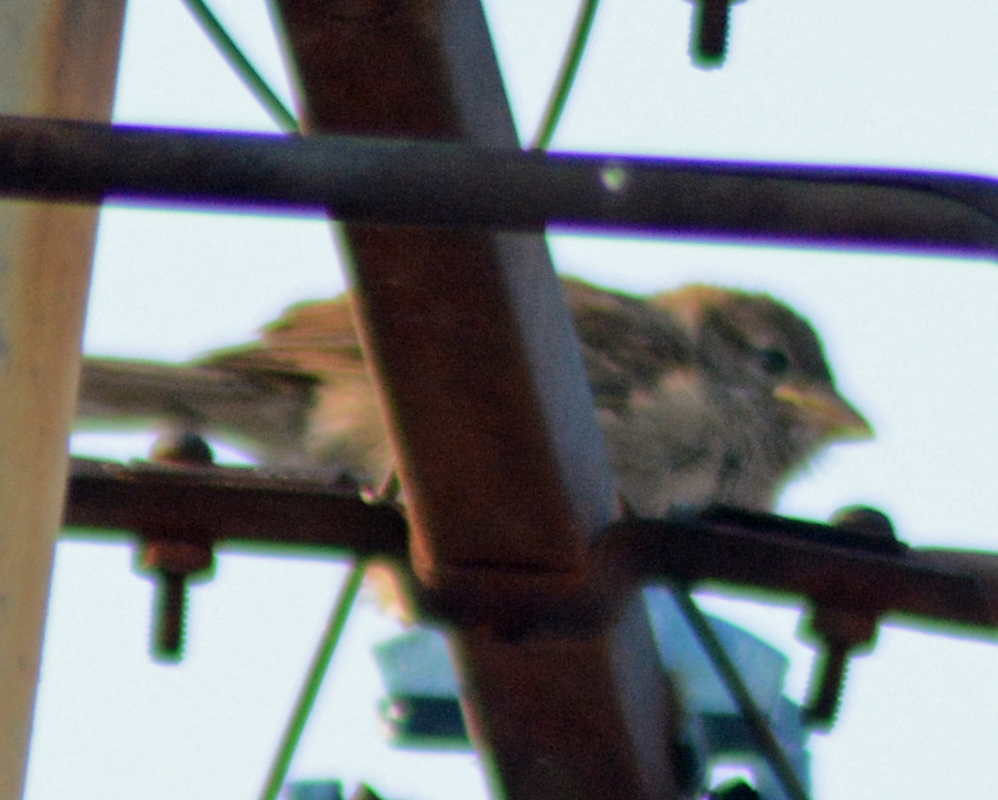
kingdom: Animalia
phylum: Chordata
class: Aves
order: Passeriformes
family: Passeridae
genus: Passer
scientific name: Passer domesticus
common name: House sparrow
